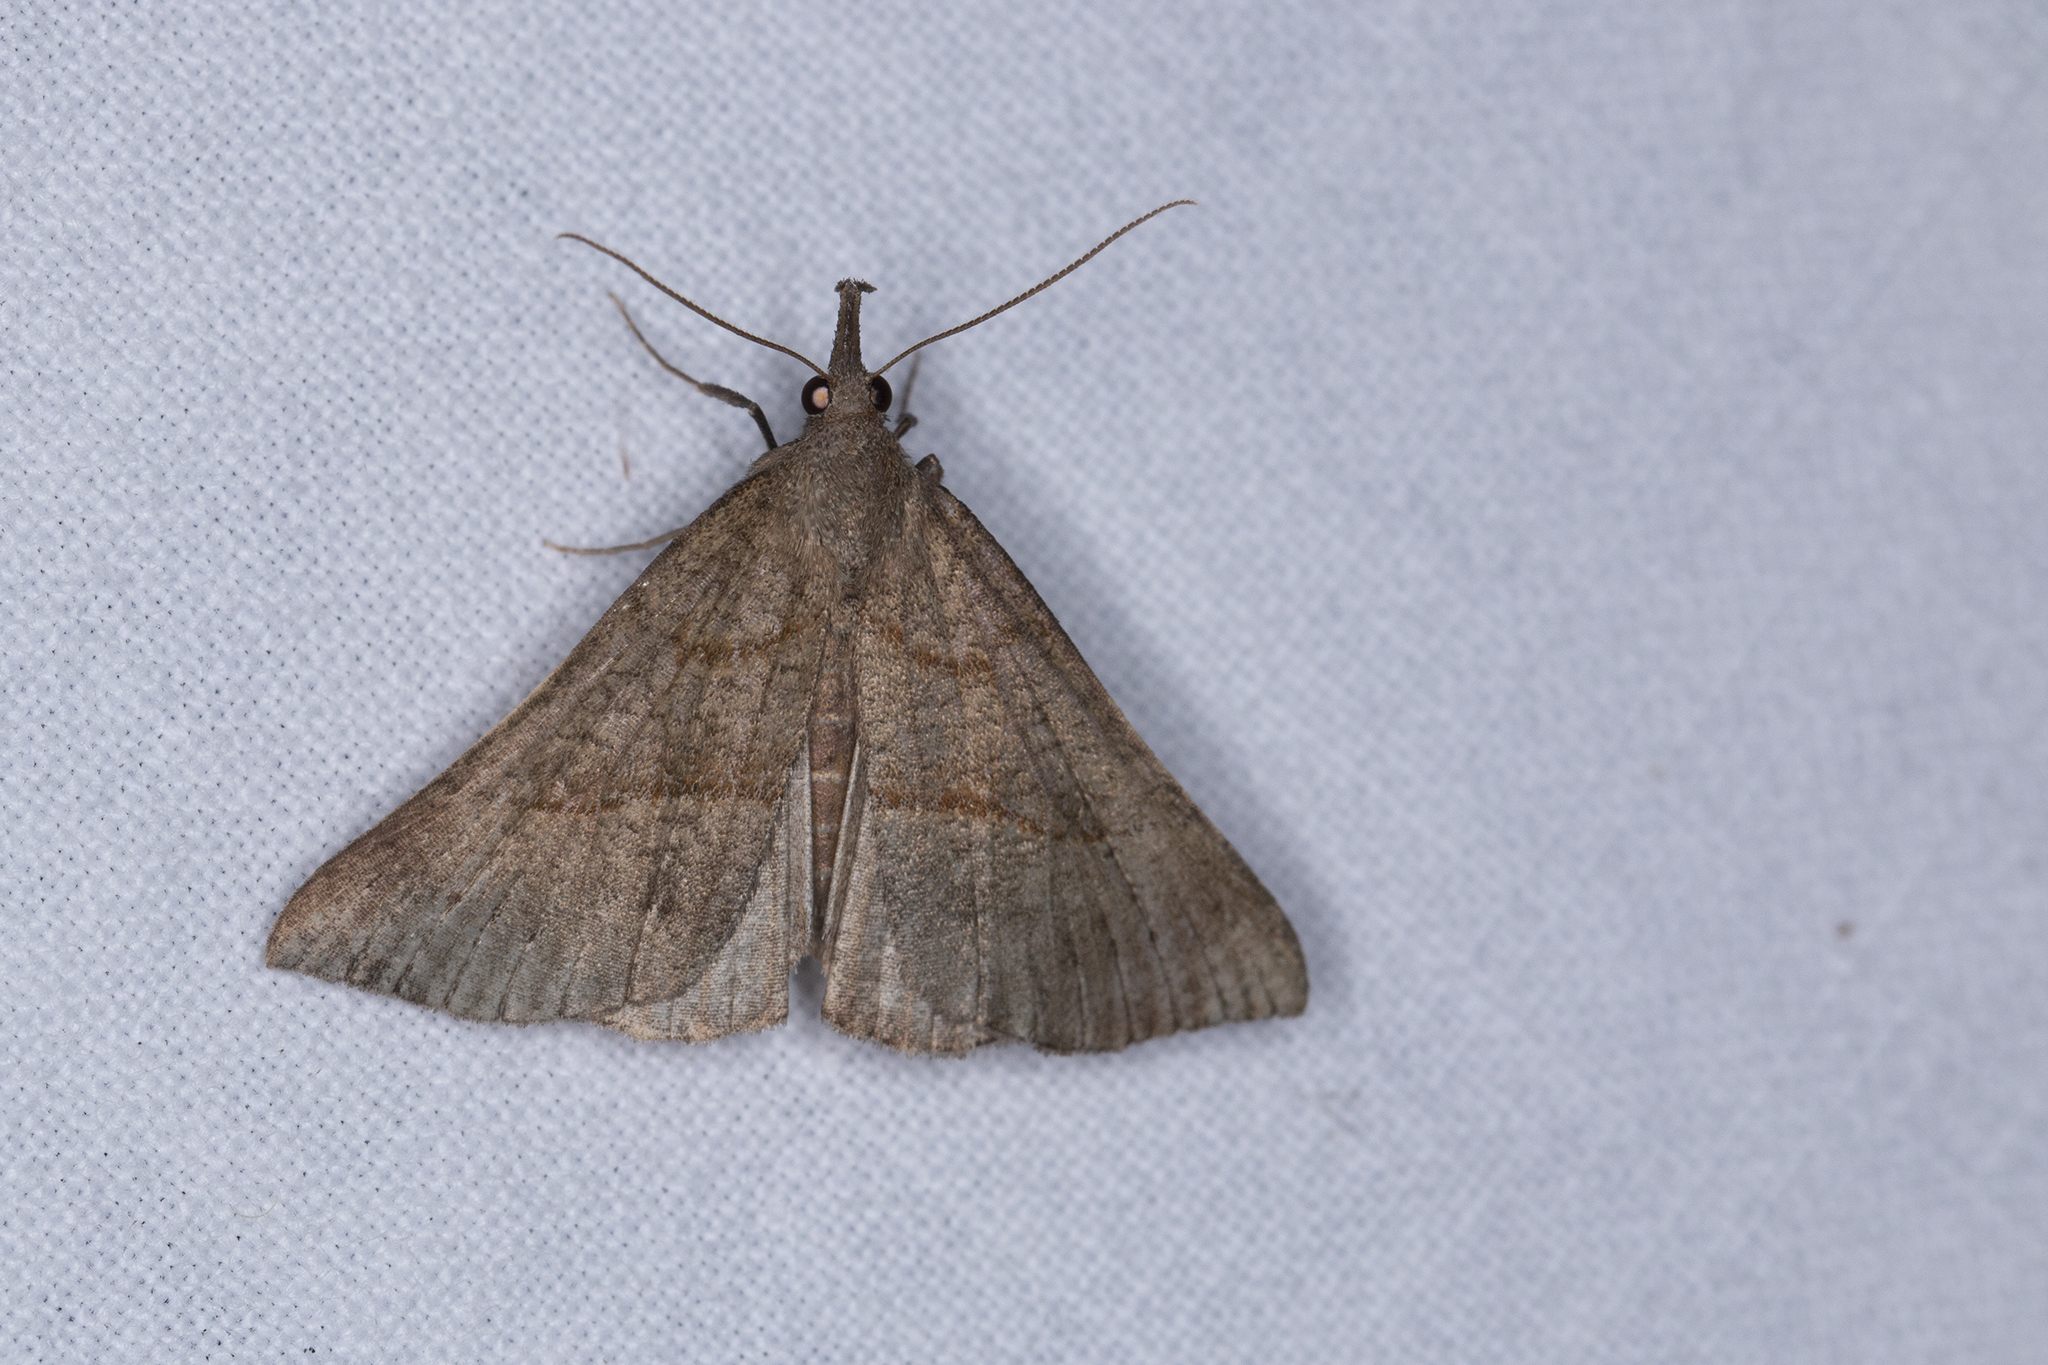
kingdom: Animalia
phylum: Arthropoda
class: Insecta
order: Lepidoptera
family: Erebidae
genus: Hypena
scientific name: Hypena proboscidalis
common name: Snout
